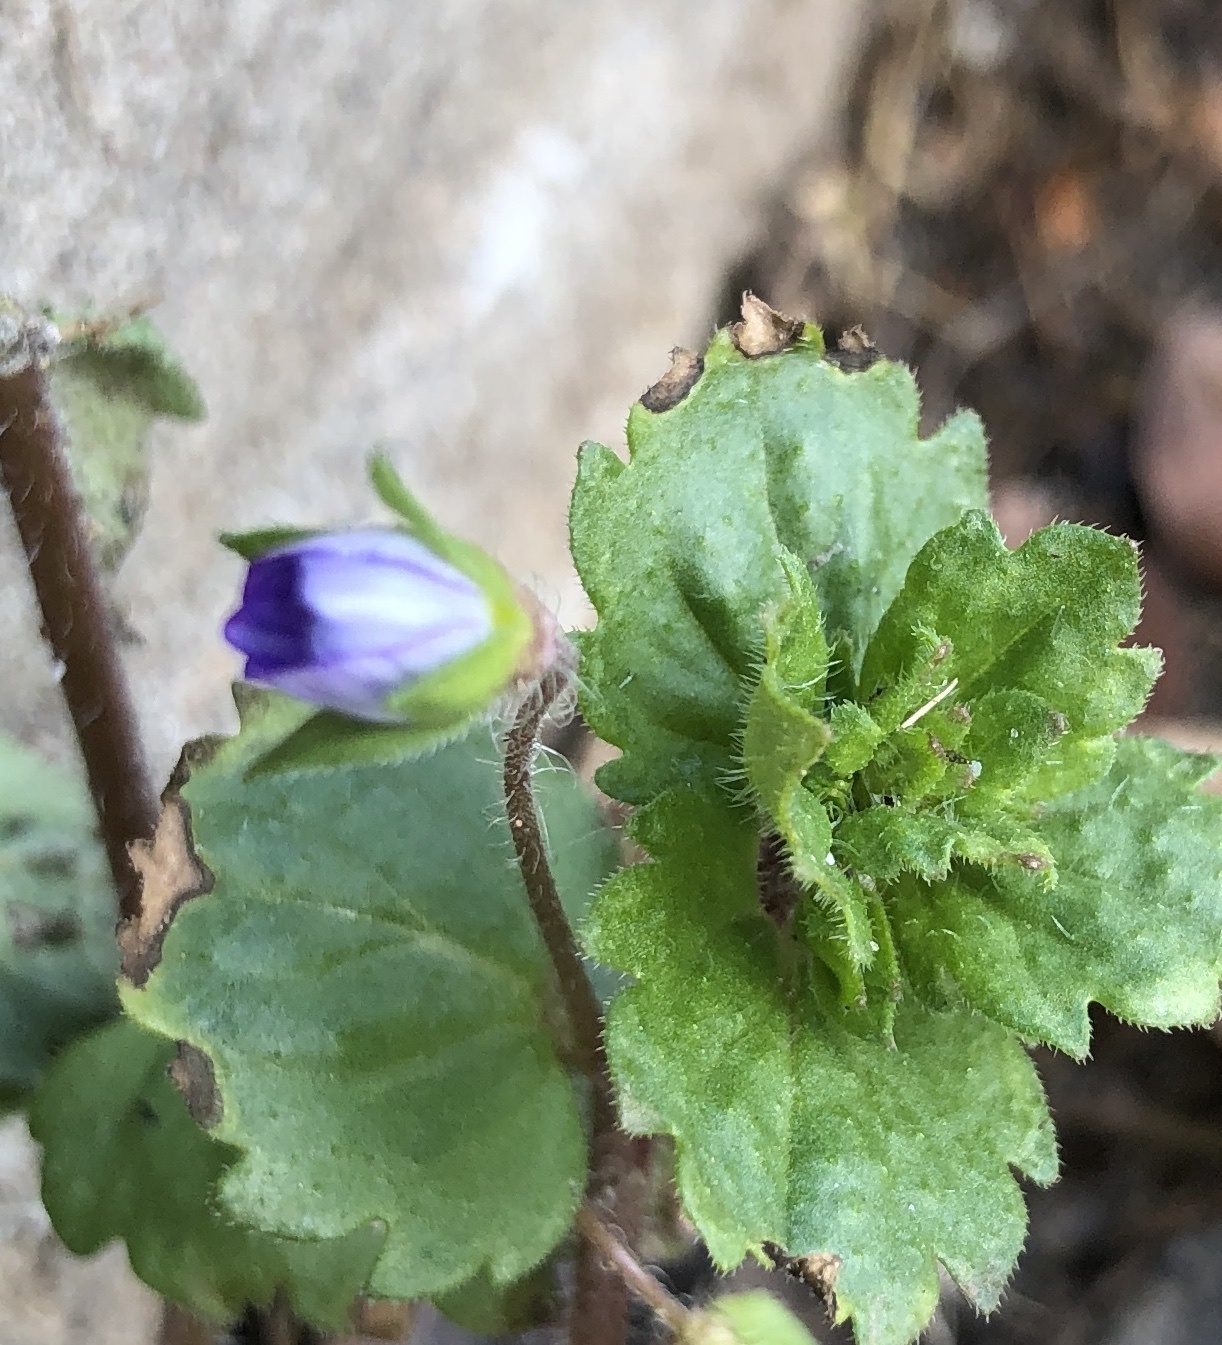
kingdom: Plantae
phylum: Tracheophyta
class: Magnoliopsida
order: Lamiales
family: Plantaginaceae
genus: Veronica
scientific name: Veronica persica
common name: Common field-speedwell
